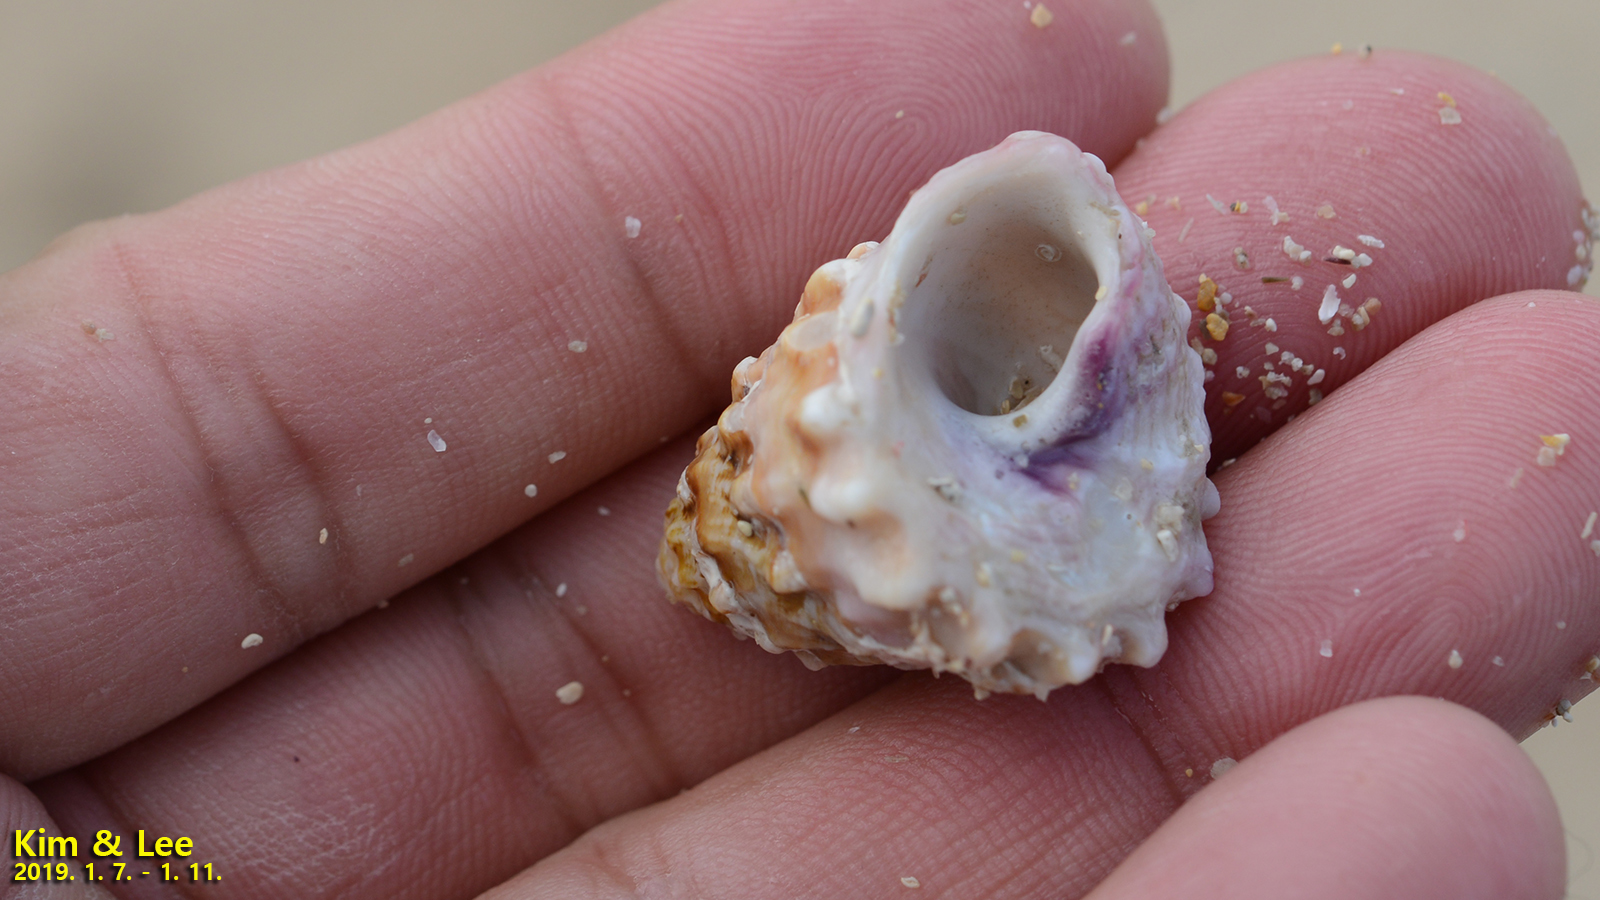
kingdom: Animalia
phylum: Mollusca
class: Gastropoda
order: Trochida
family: Turbinidae
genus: Astralium
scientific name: Astralium haematragum
